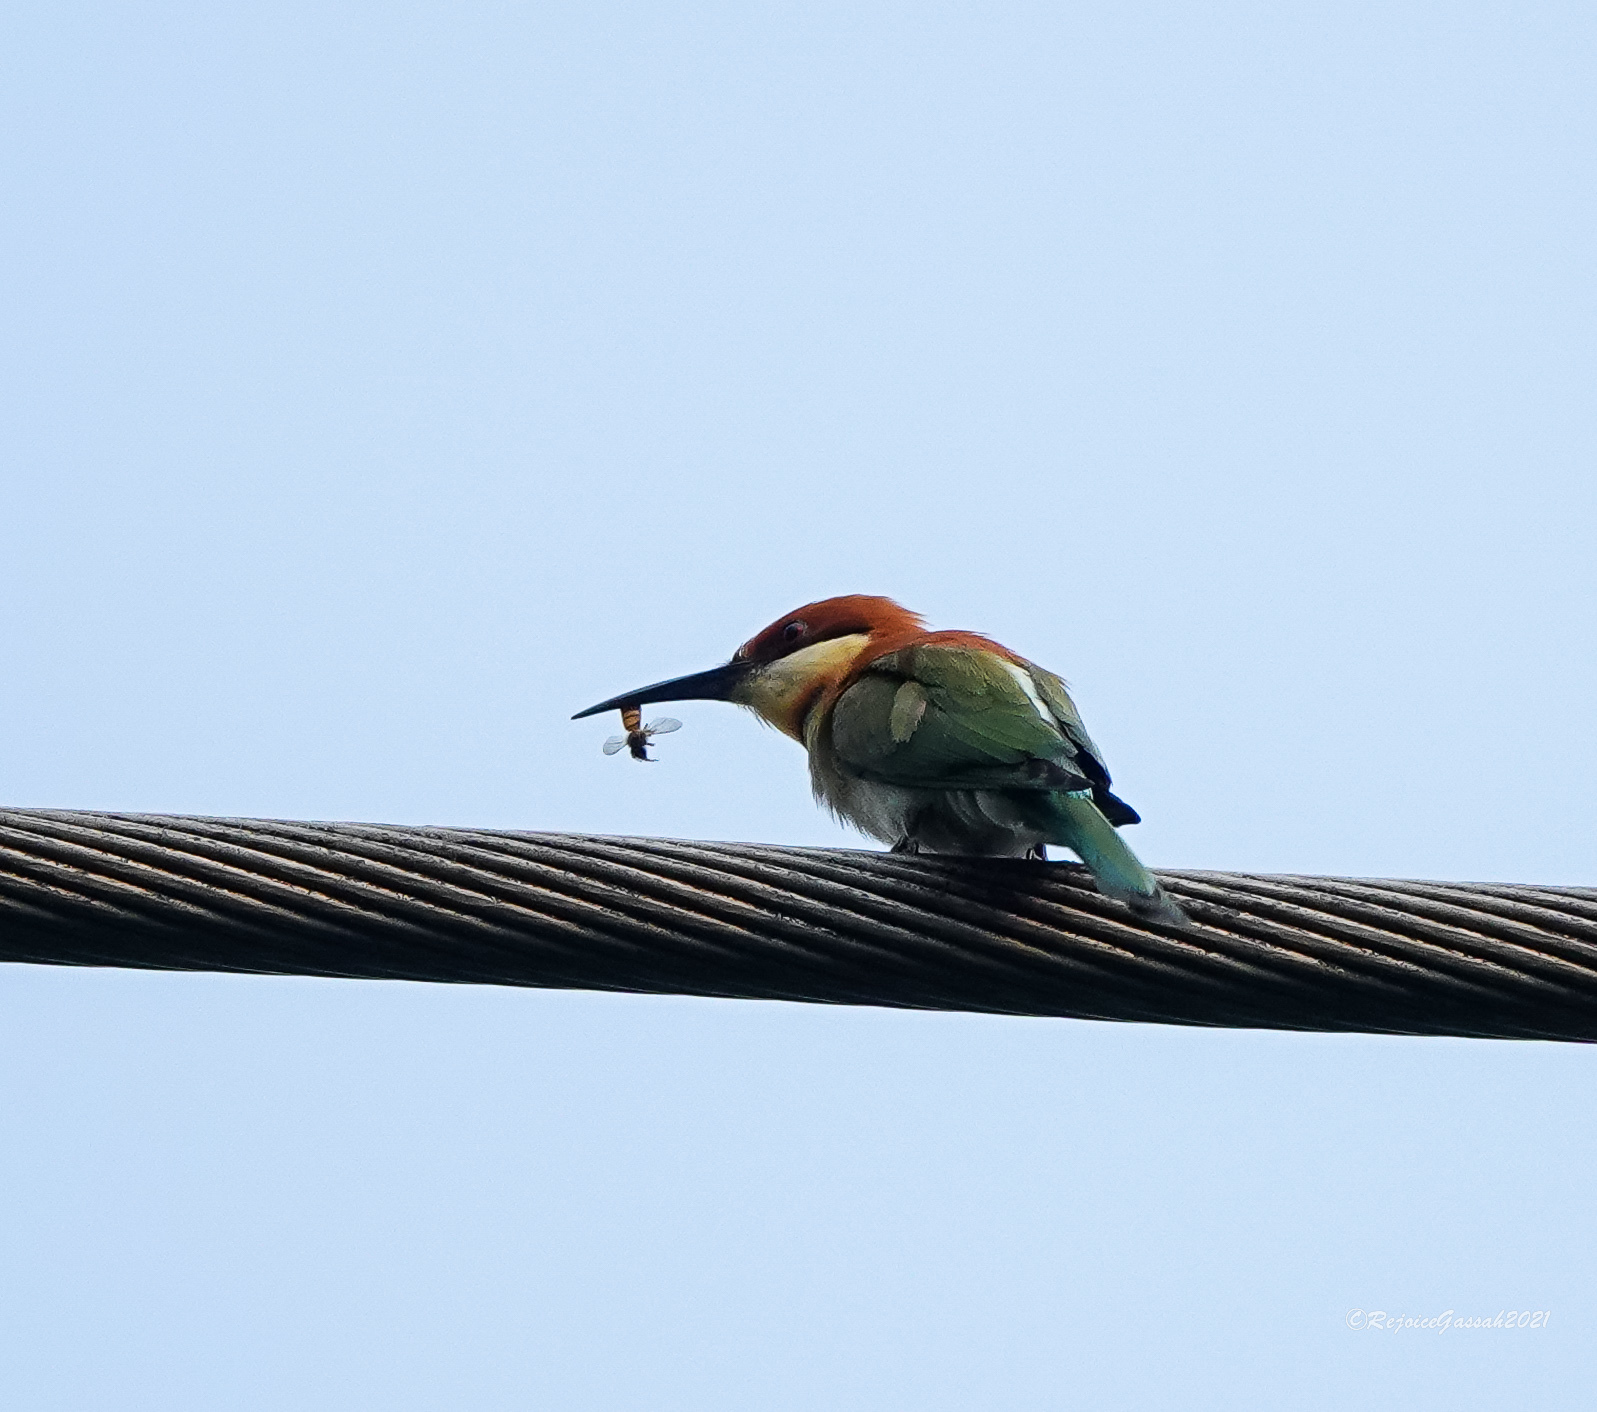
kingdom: Animalia
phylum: Chordata
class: Aves
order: Coraciiformes
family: Meropidae
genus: Merops
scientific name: Merops leschenaulti
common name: Chestnut-headed bee-eater
